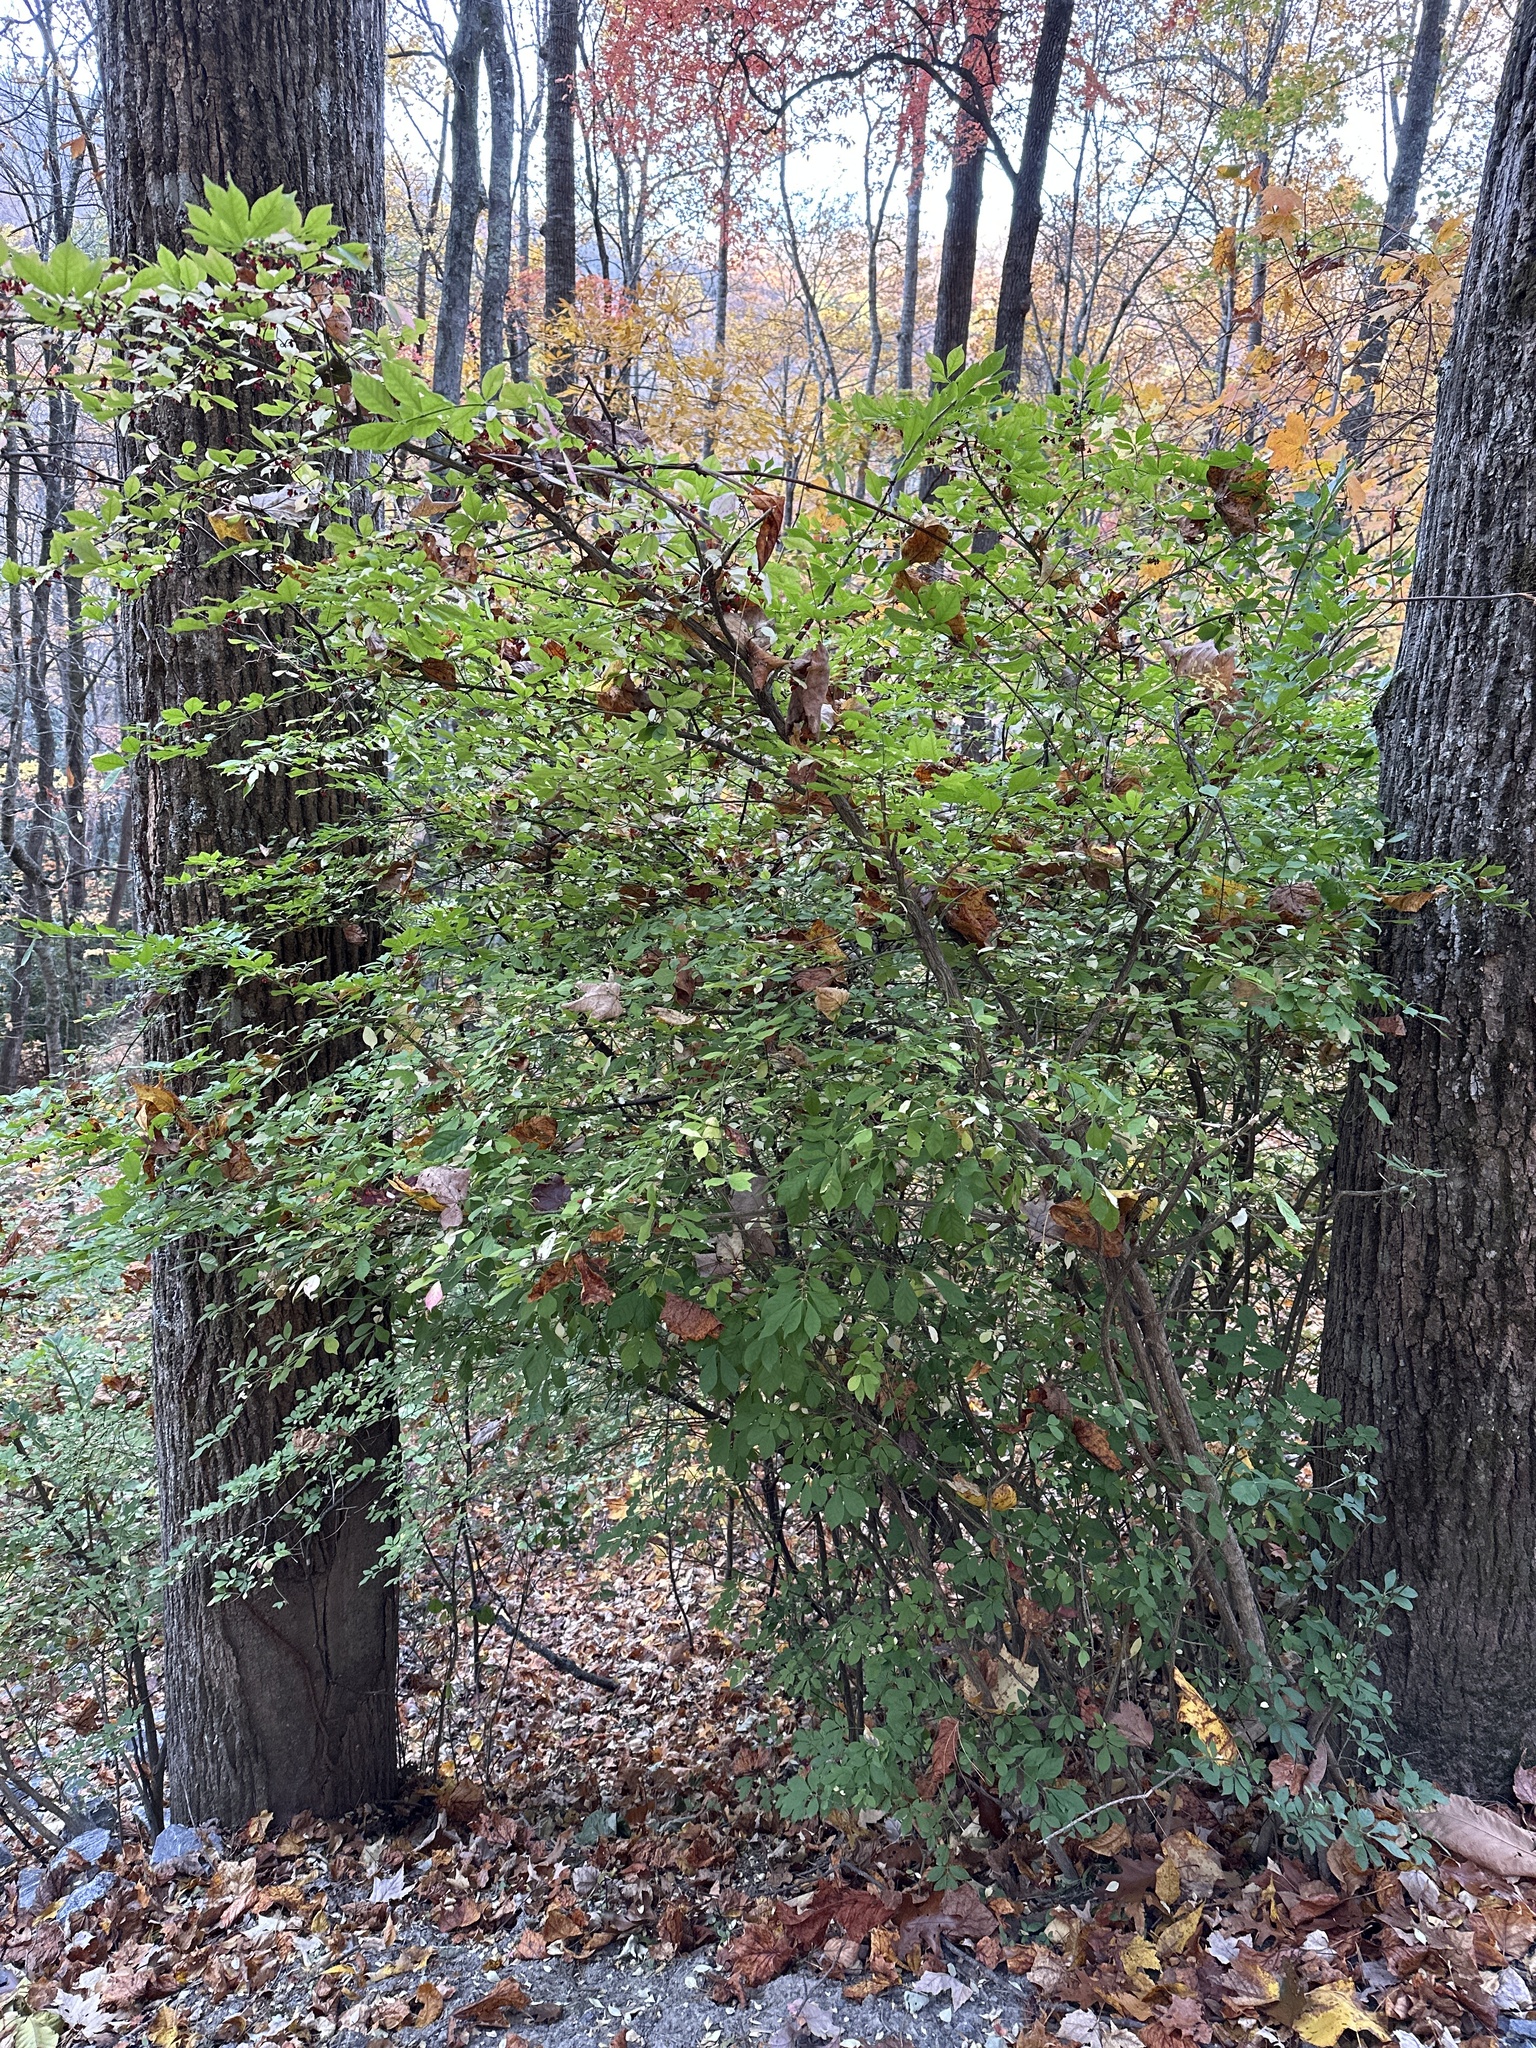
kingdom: Plantae
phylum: Tracheophyta
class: Magnoliopsida
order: Celastrales
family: Celastraceae
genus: Euonymus
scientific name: Euonymus alatus
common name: Winged euonymus
